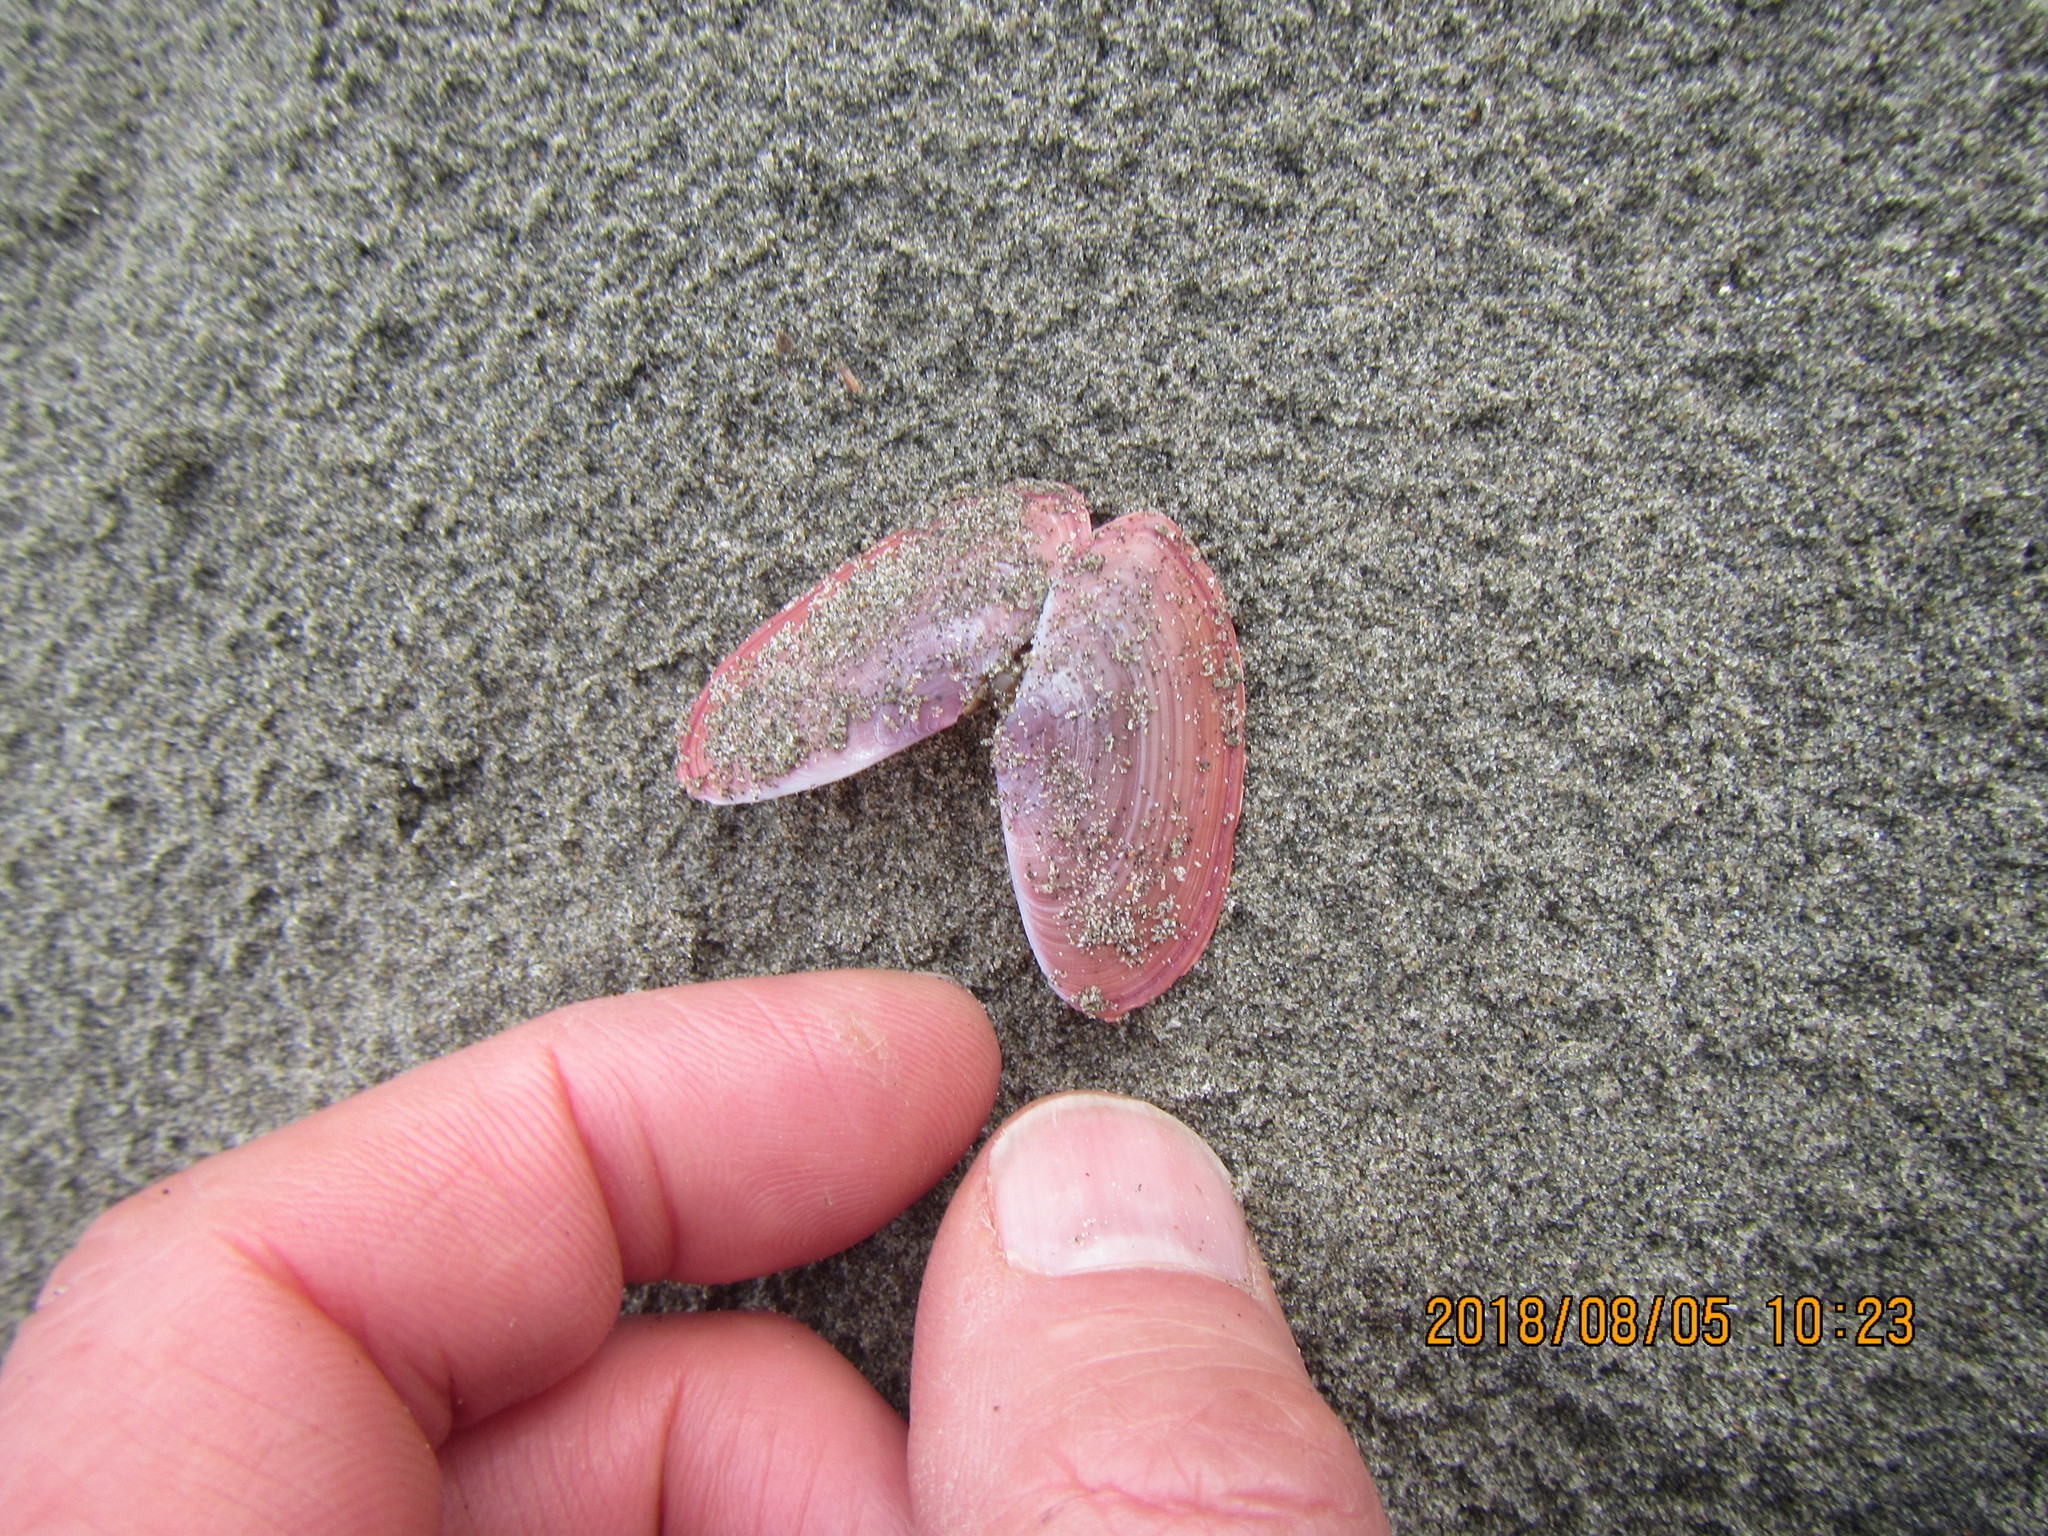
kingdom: Animalia
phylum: Mollusca
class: Bivalvia
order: Cardiida
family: Psammobiidae
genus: Gari
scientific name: Gari lineolata
